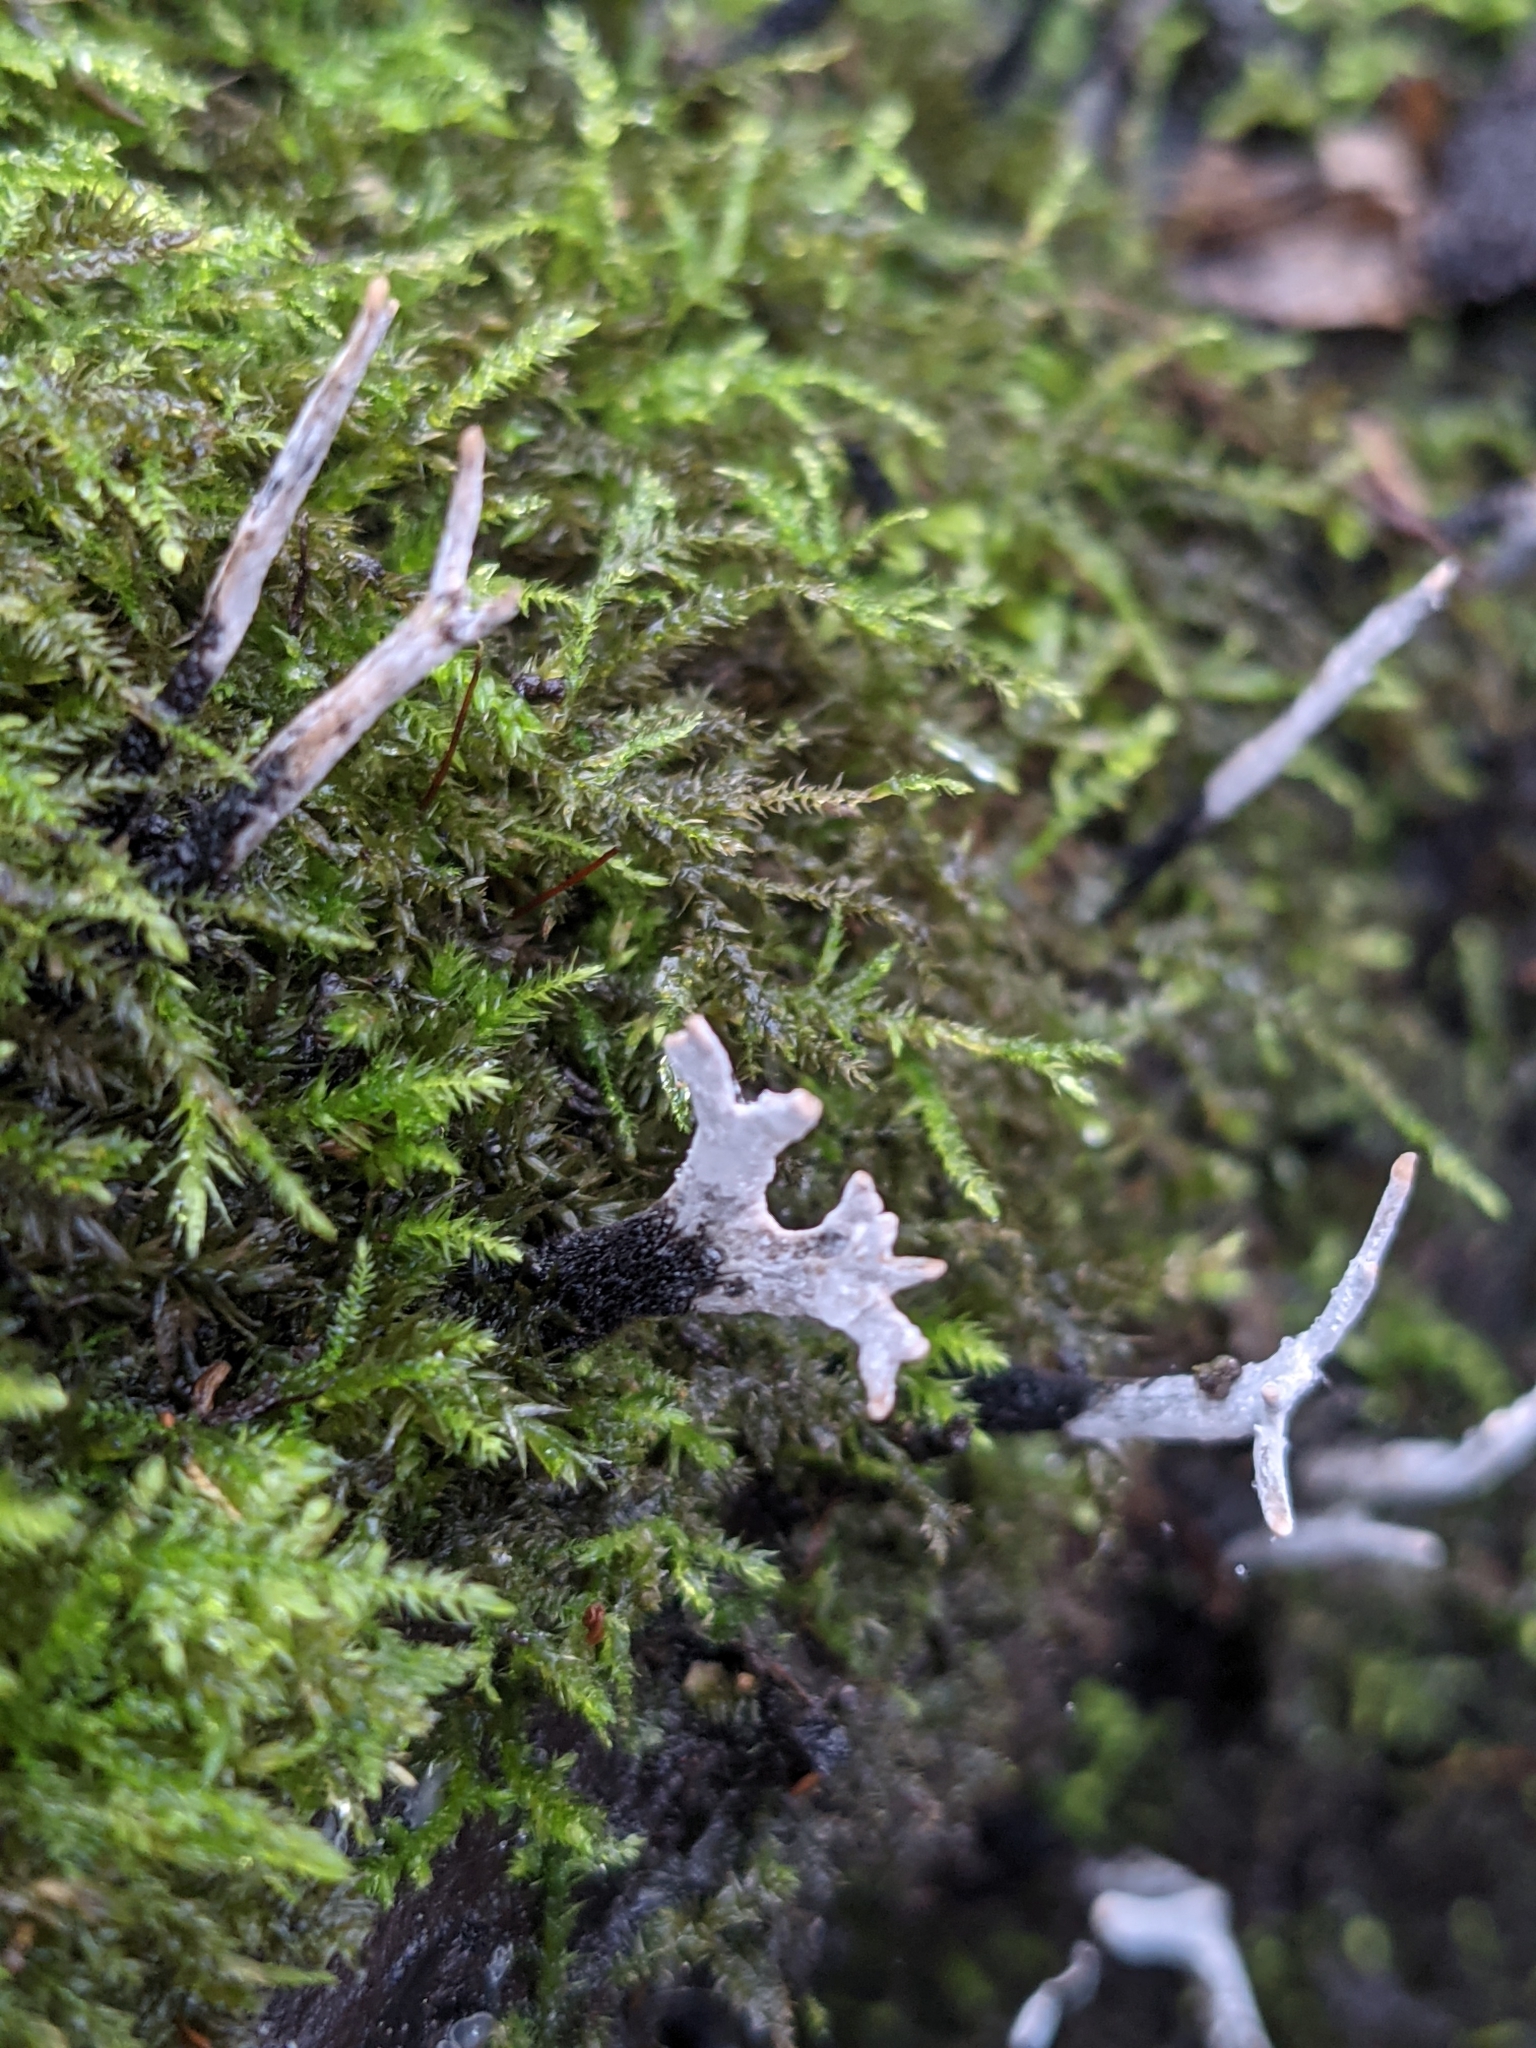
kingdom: Fungi
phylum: Ascomycota
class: Sordariomycetes
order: Xylariales
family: Xylariaceae
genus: Xylaria
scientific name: Xylaria hypoxylon
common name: Candle-snuff fungus
